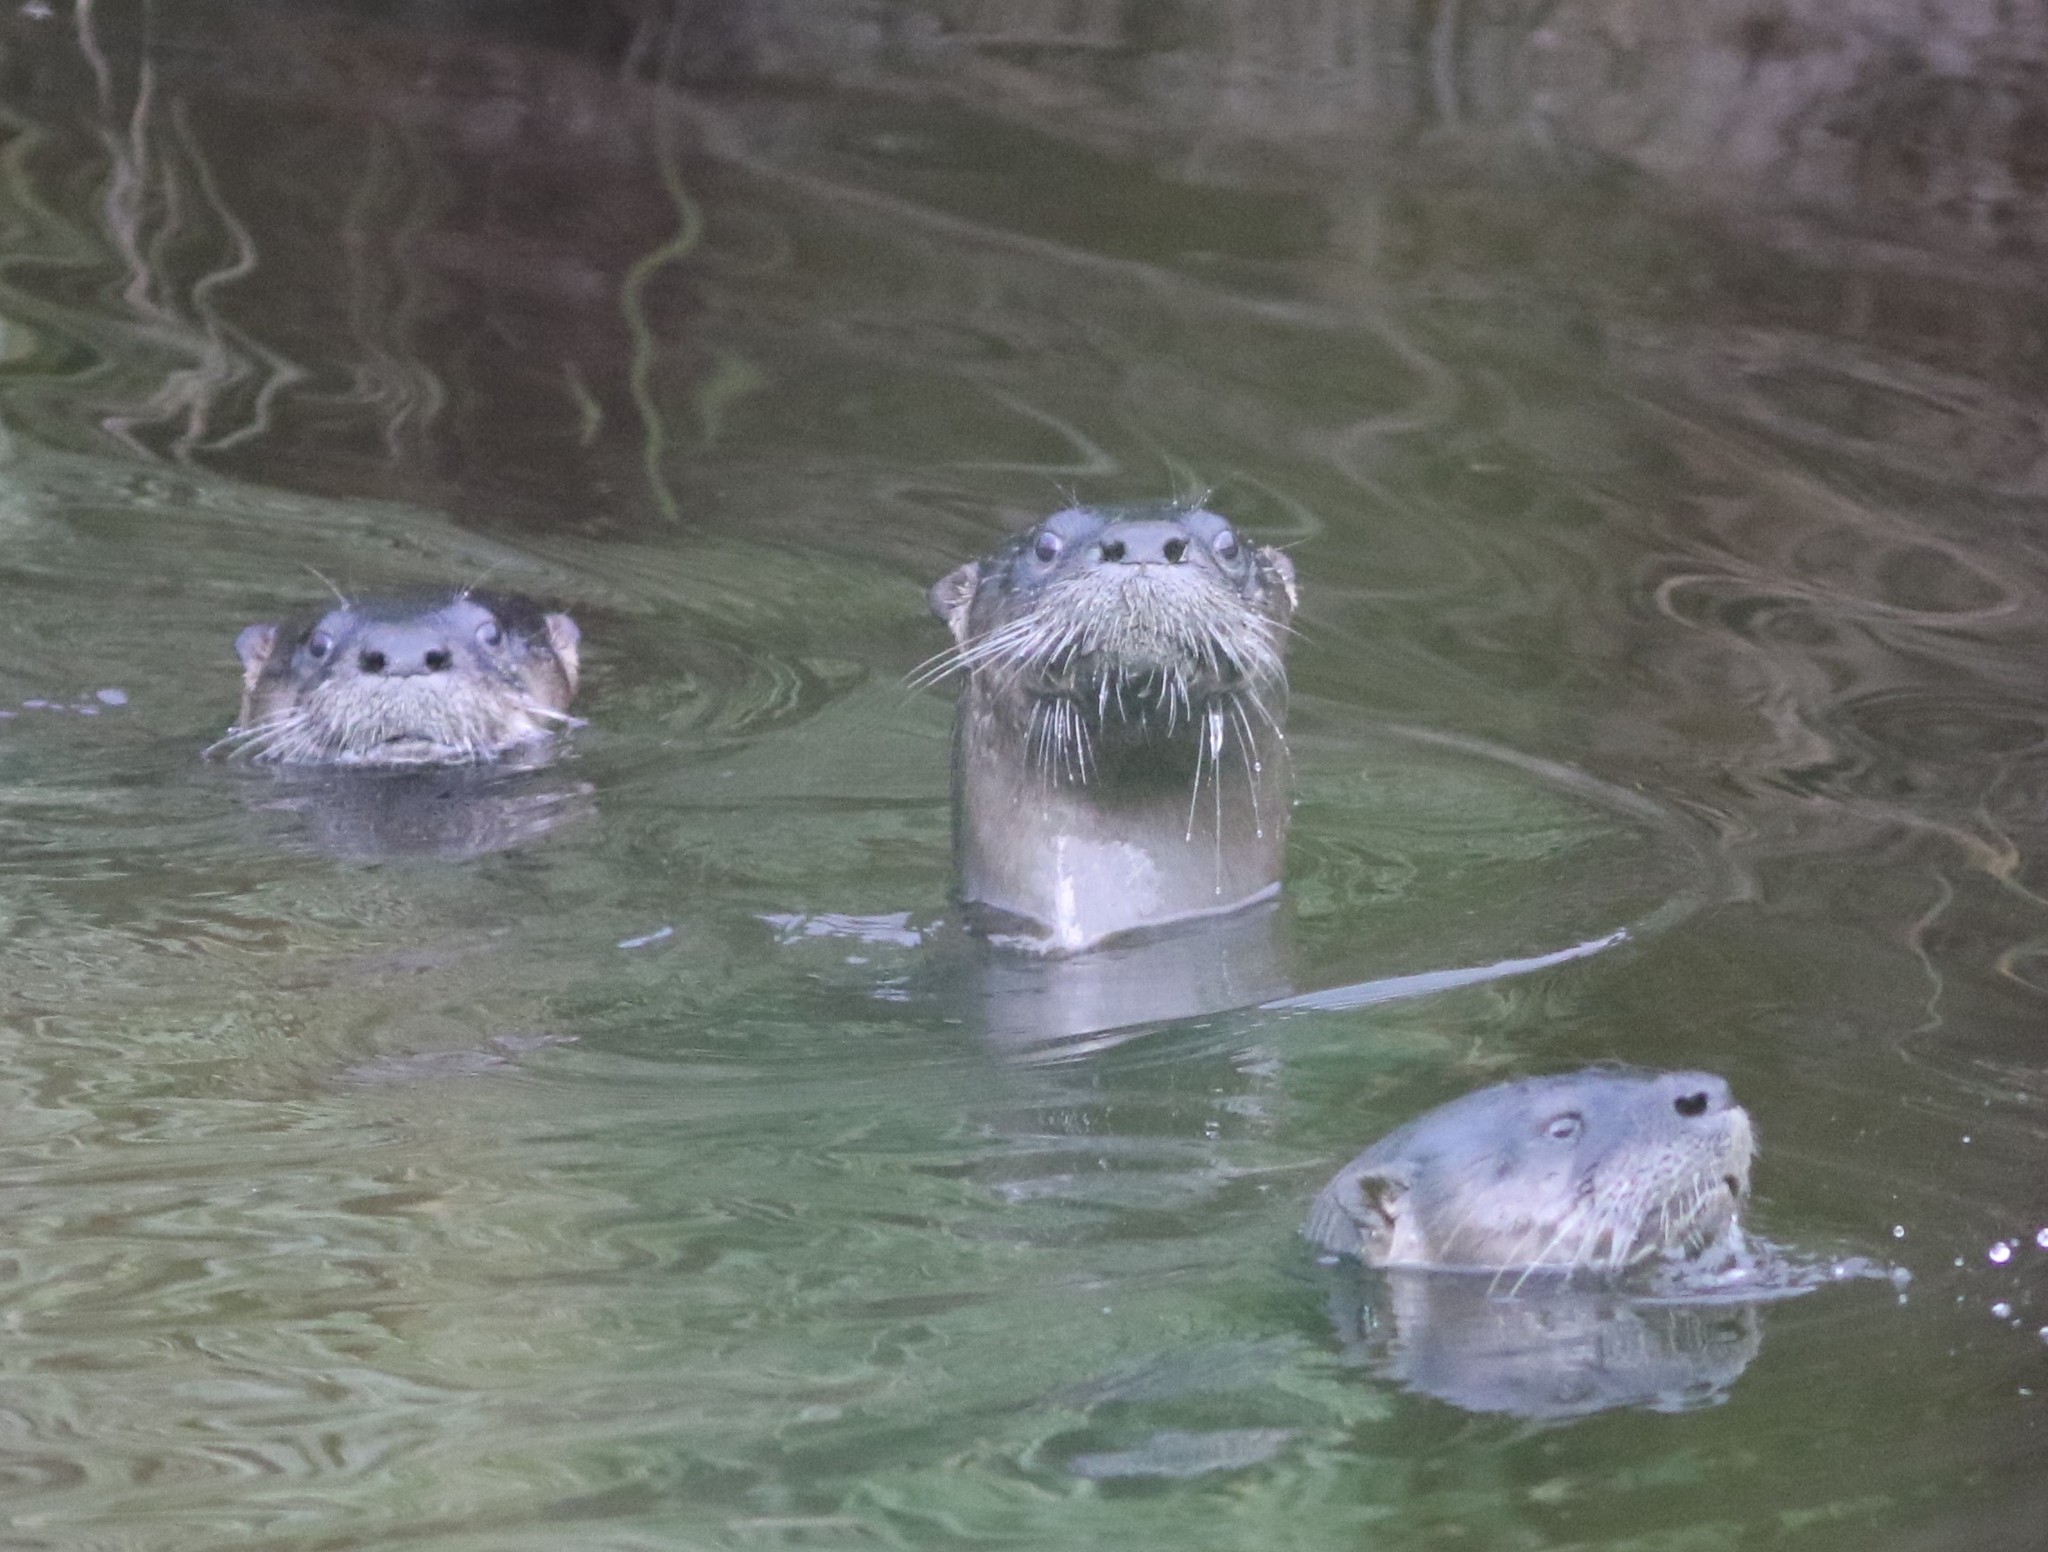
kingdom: Animalia
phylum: Chordata
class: Mammalia
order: Carnivora
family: Mustelidae
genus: Lontra
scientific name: Lontra canadensis
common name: North american river otter
